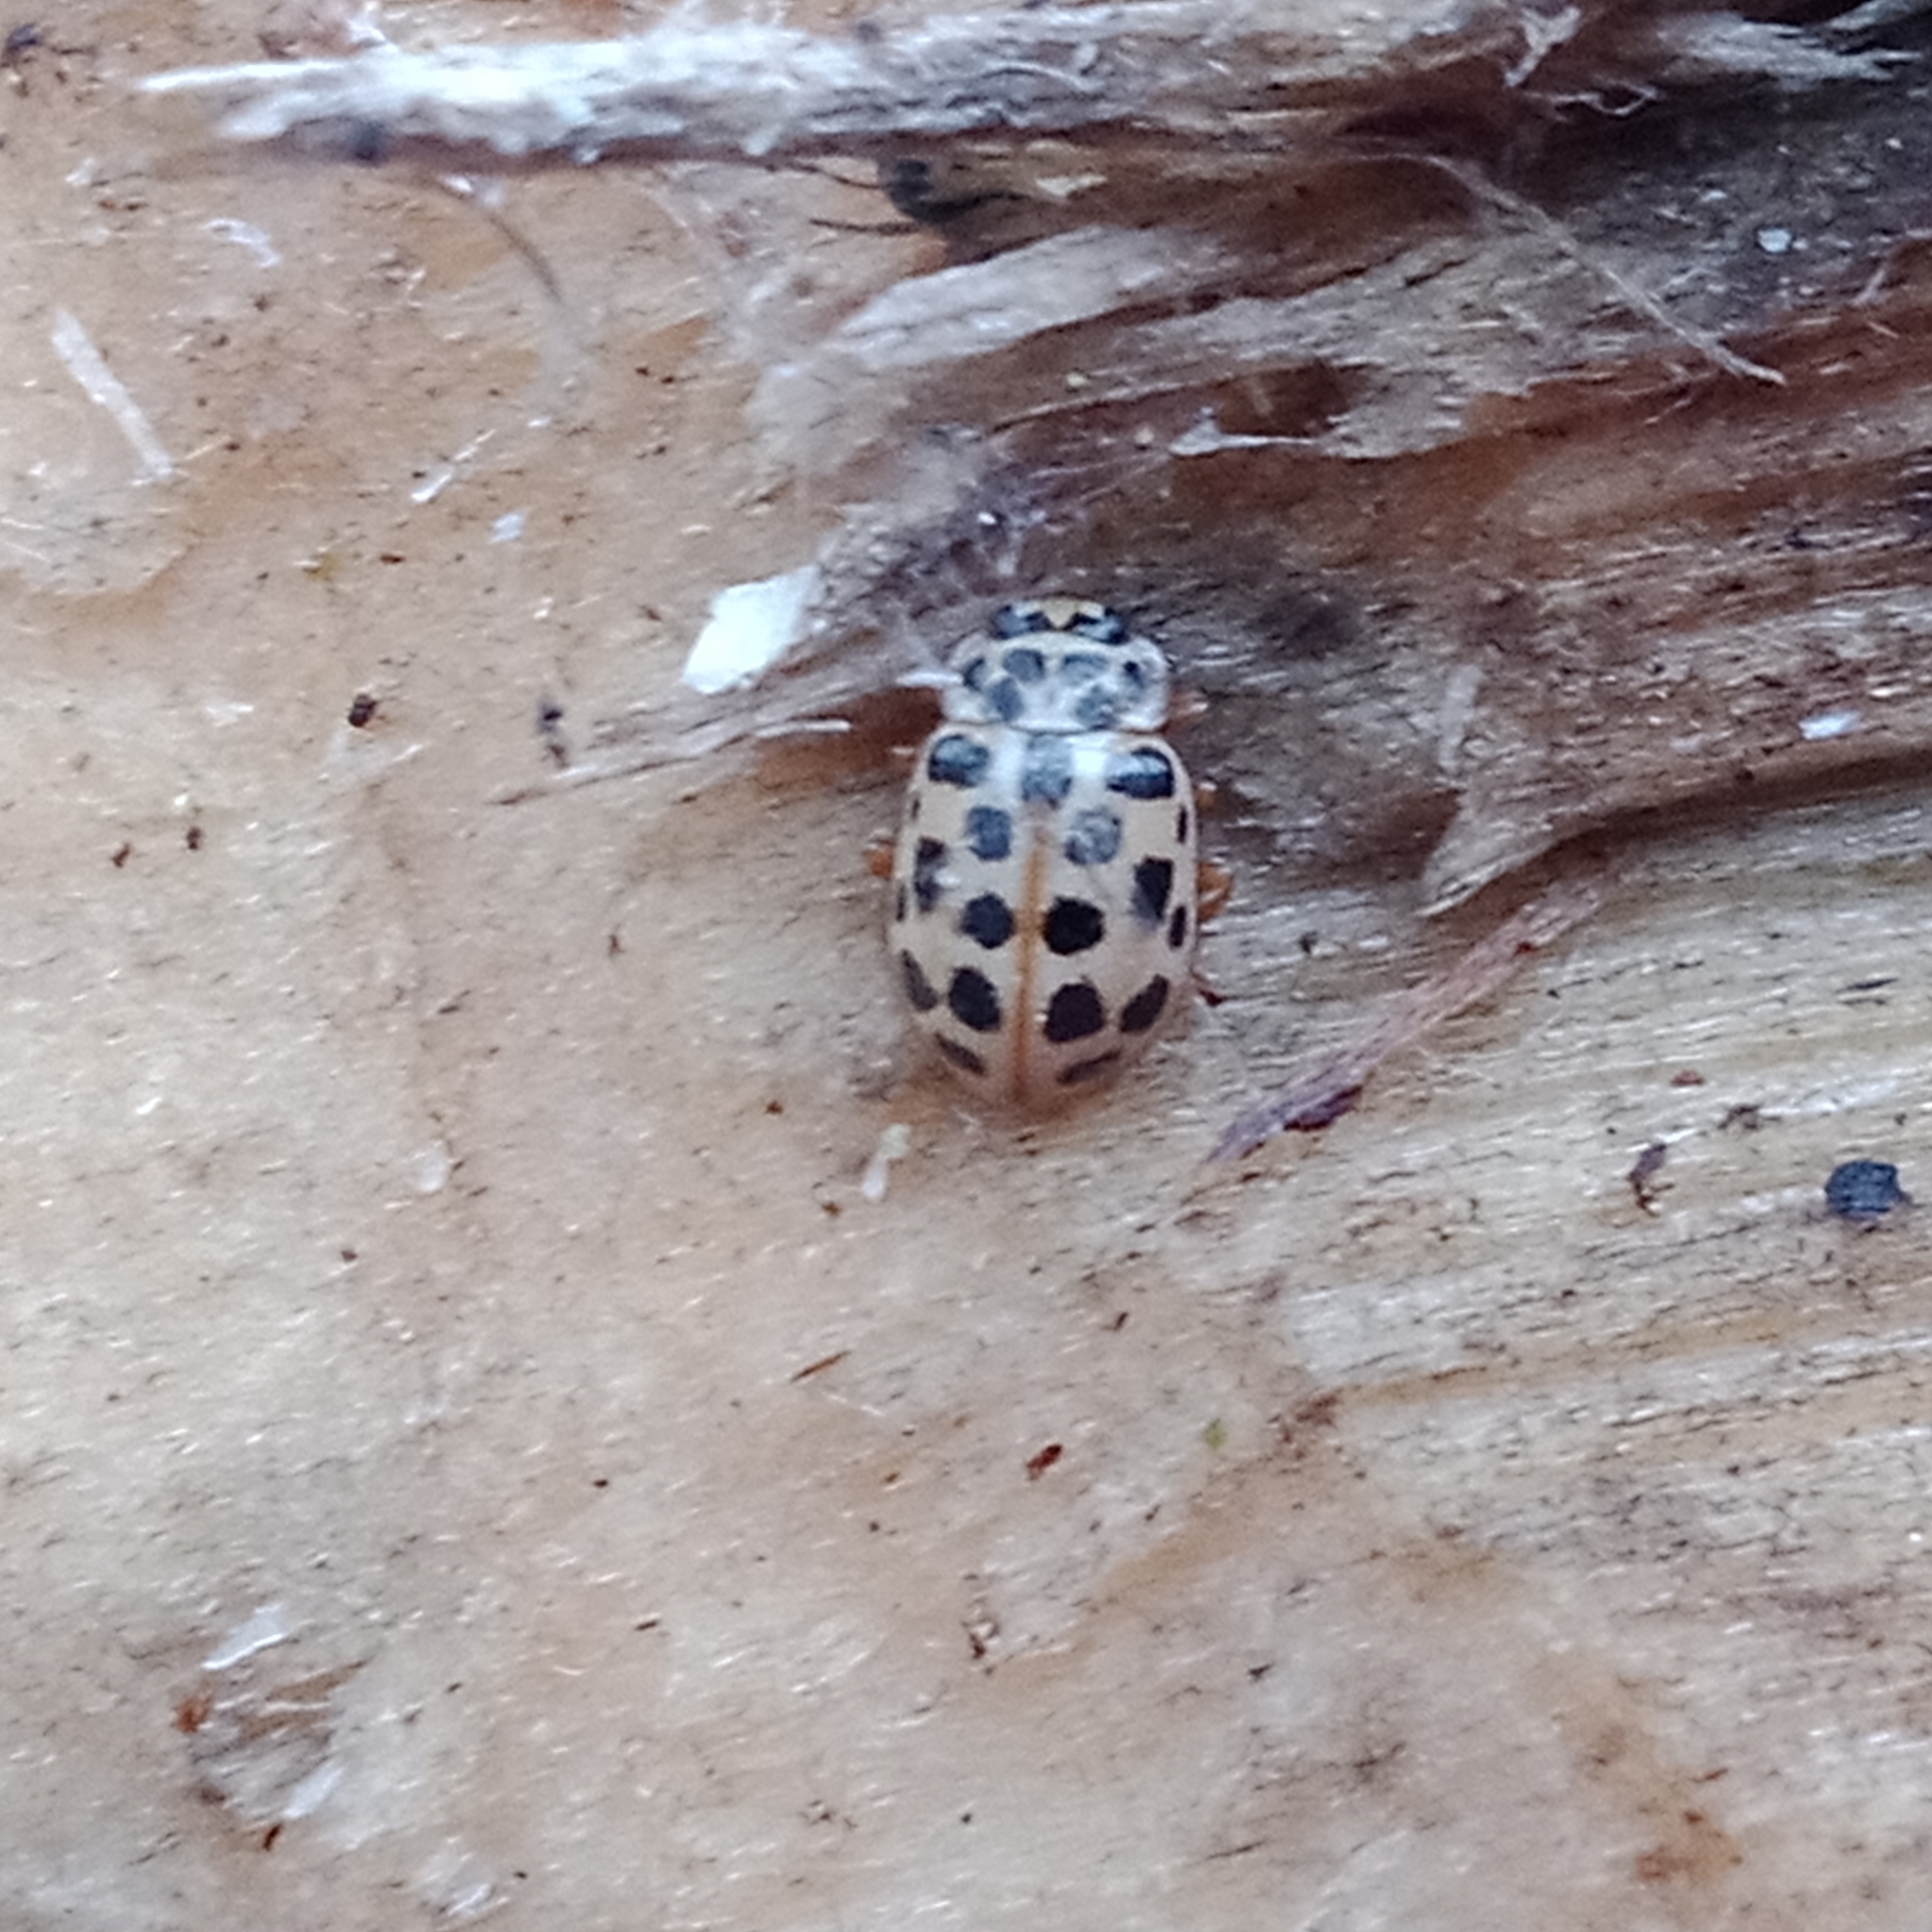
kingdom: Animalia
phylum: Arthropoda
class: Insecta
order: Coleoptera
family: Coccinellidae
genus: Anisosticta
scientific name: Anisosticta novemdecimpunctata
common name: Water ladybird
